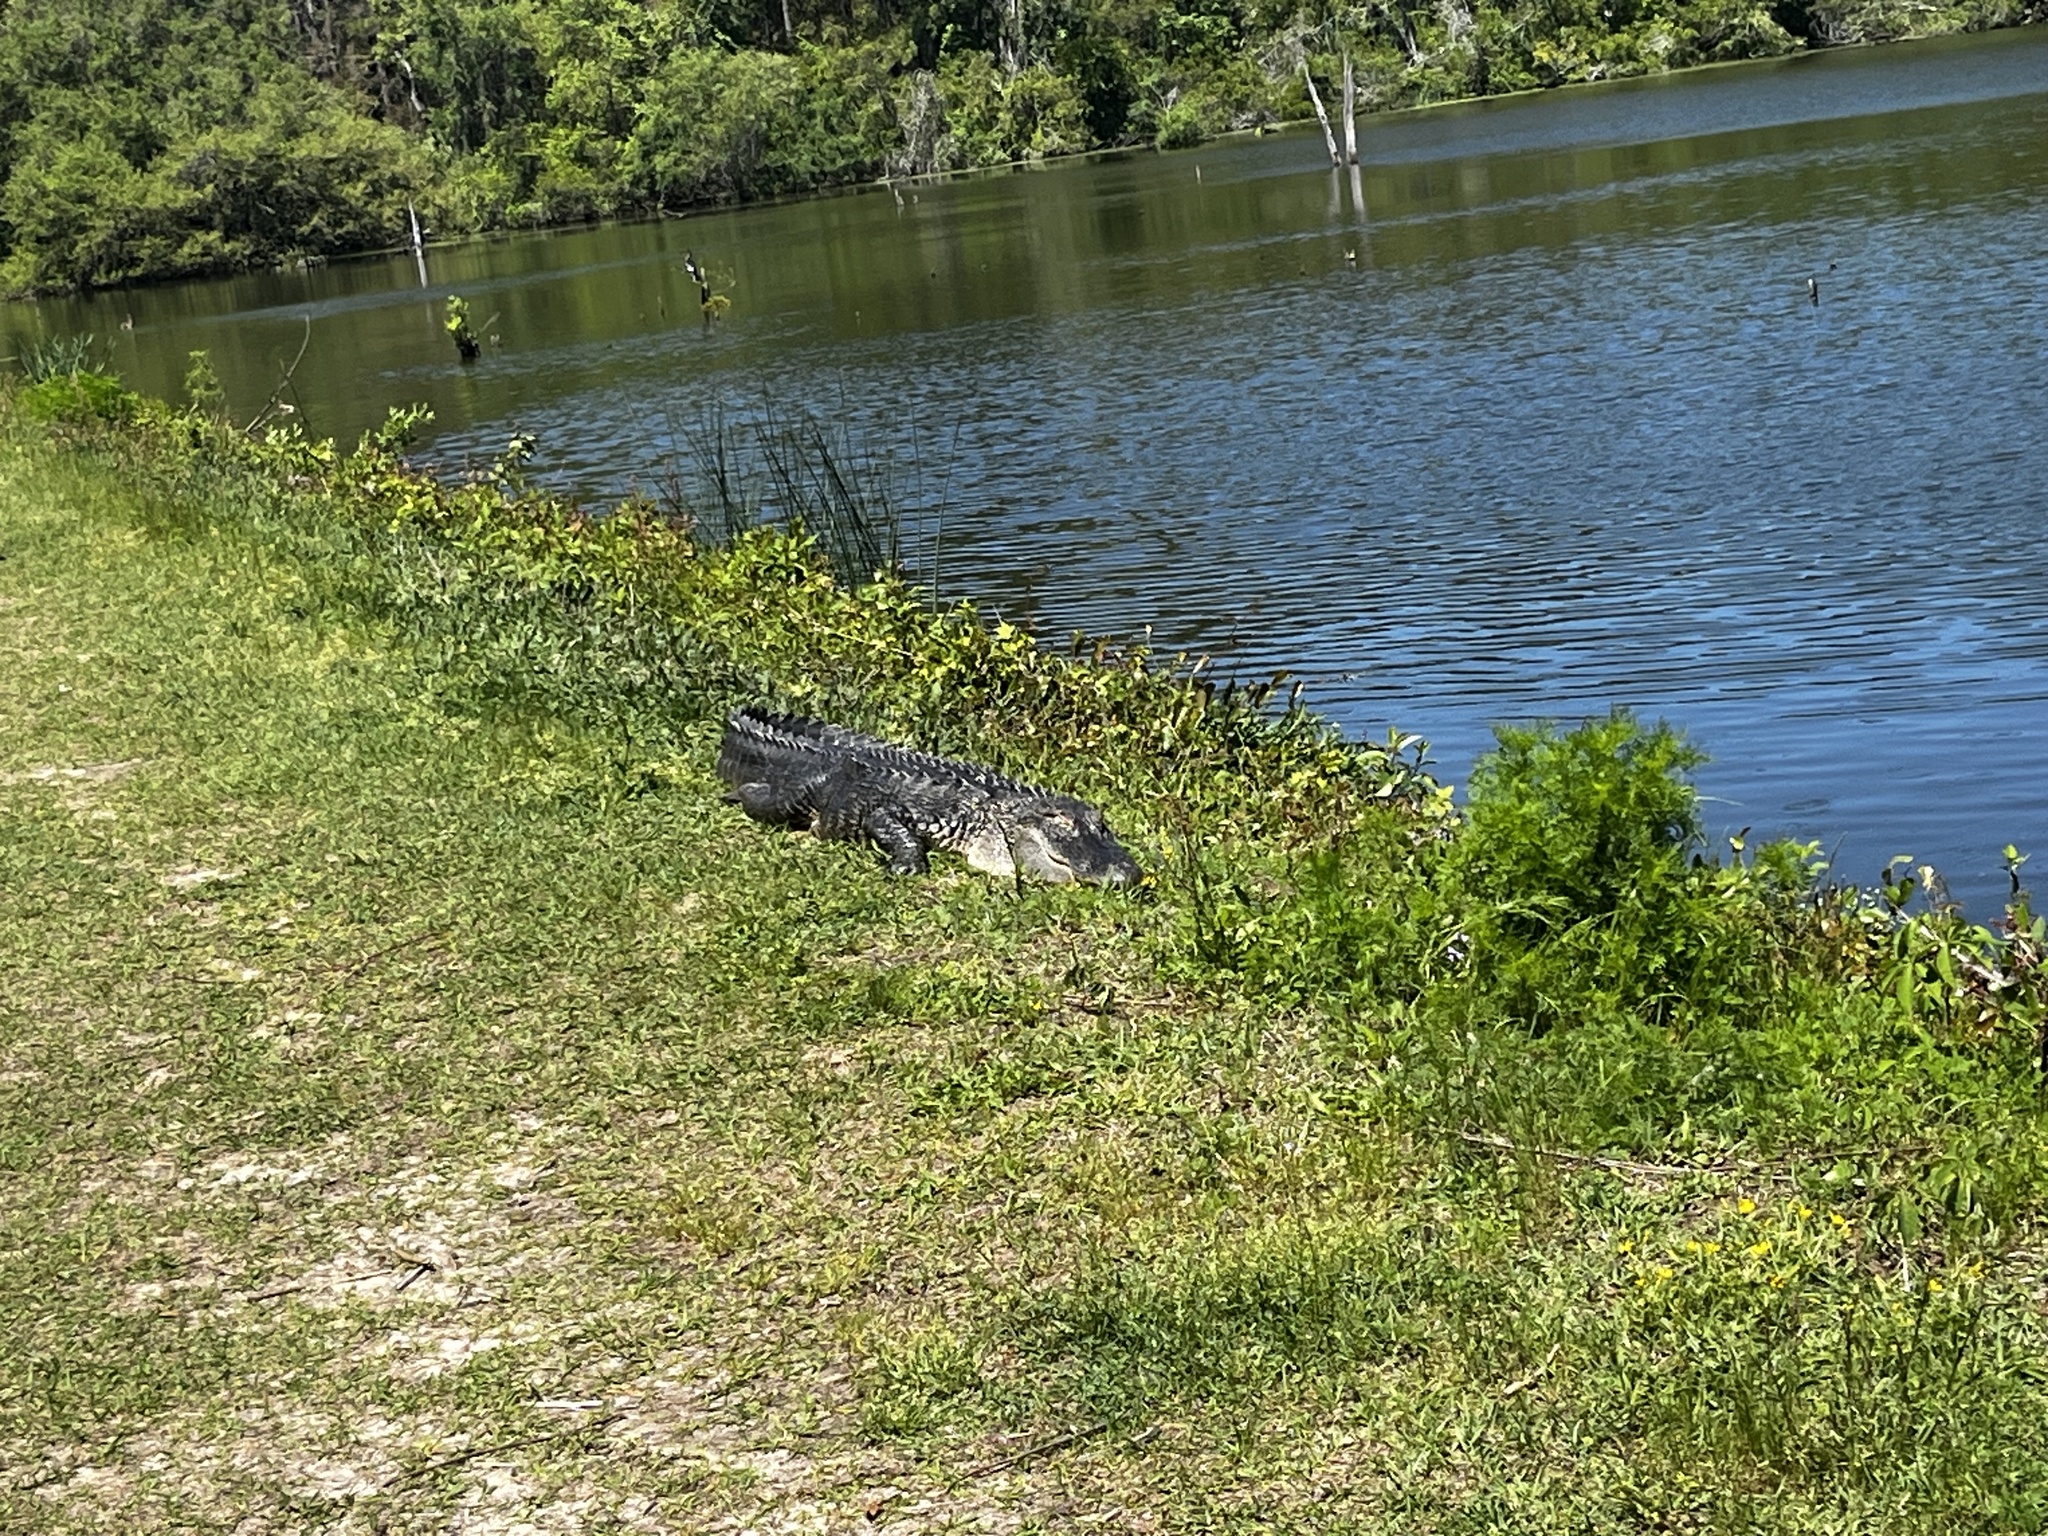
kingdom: Animalia
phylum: Chordata
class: Crocodylia
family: Alligatoridae
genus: Alligator
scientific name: Alligator mississippiensis
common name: American alligator
